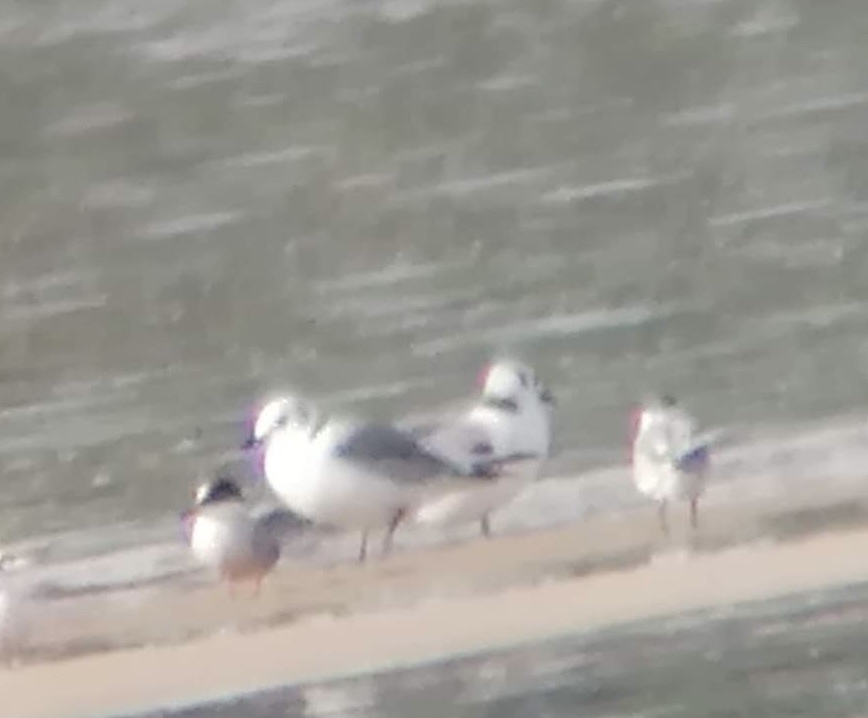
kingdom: Animalia
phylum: Chordata
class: Aves
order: Charadriiformes
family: Laridae
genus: Rissa
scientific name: Rissa tridactyla
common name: Black-legged kittiwake
